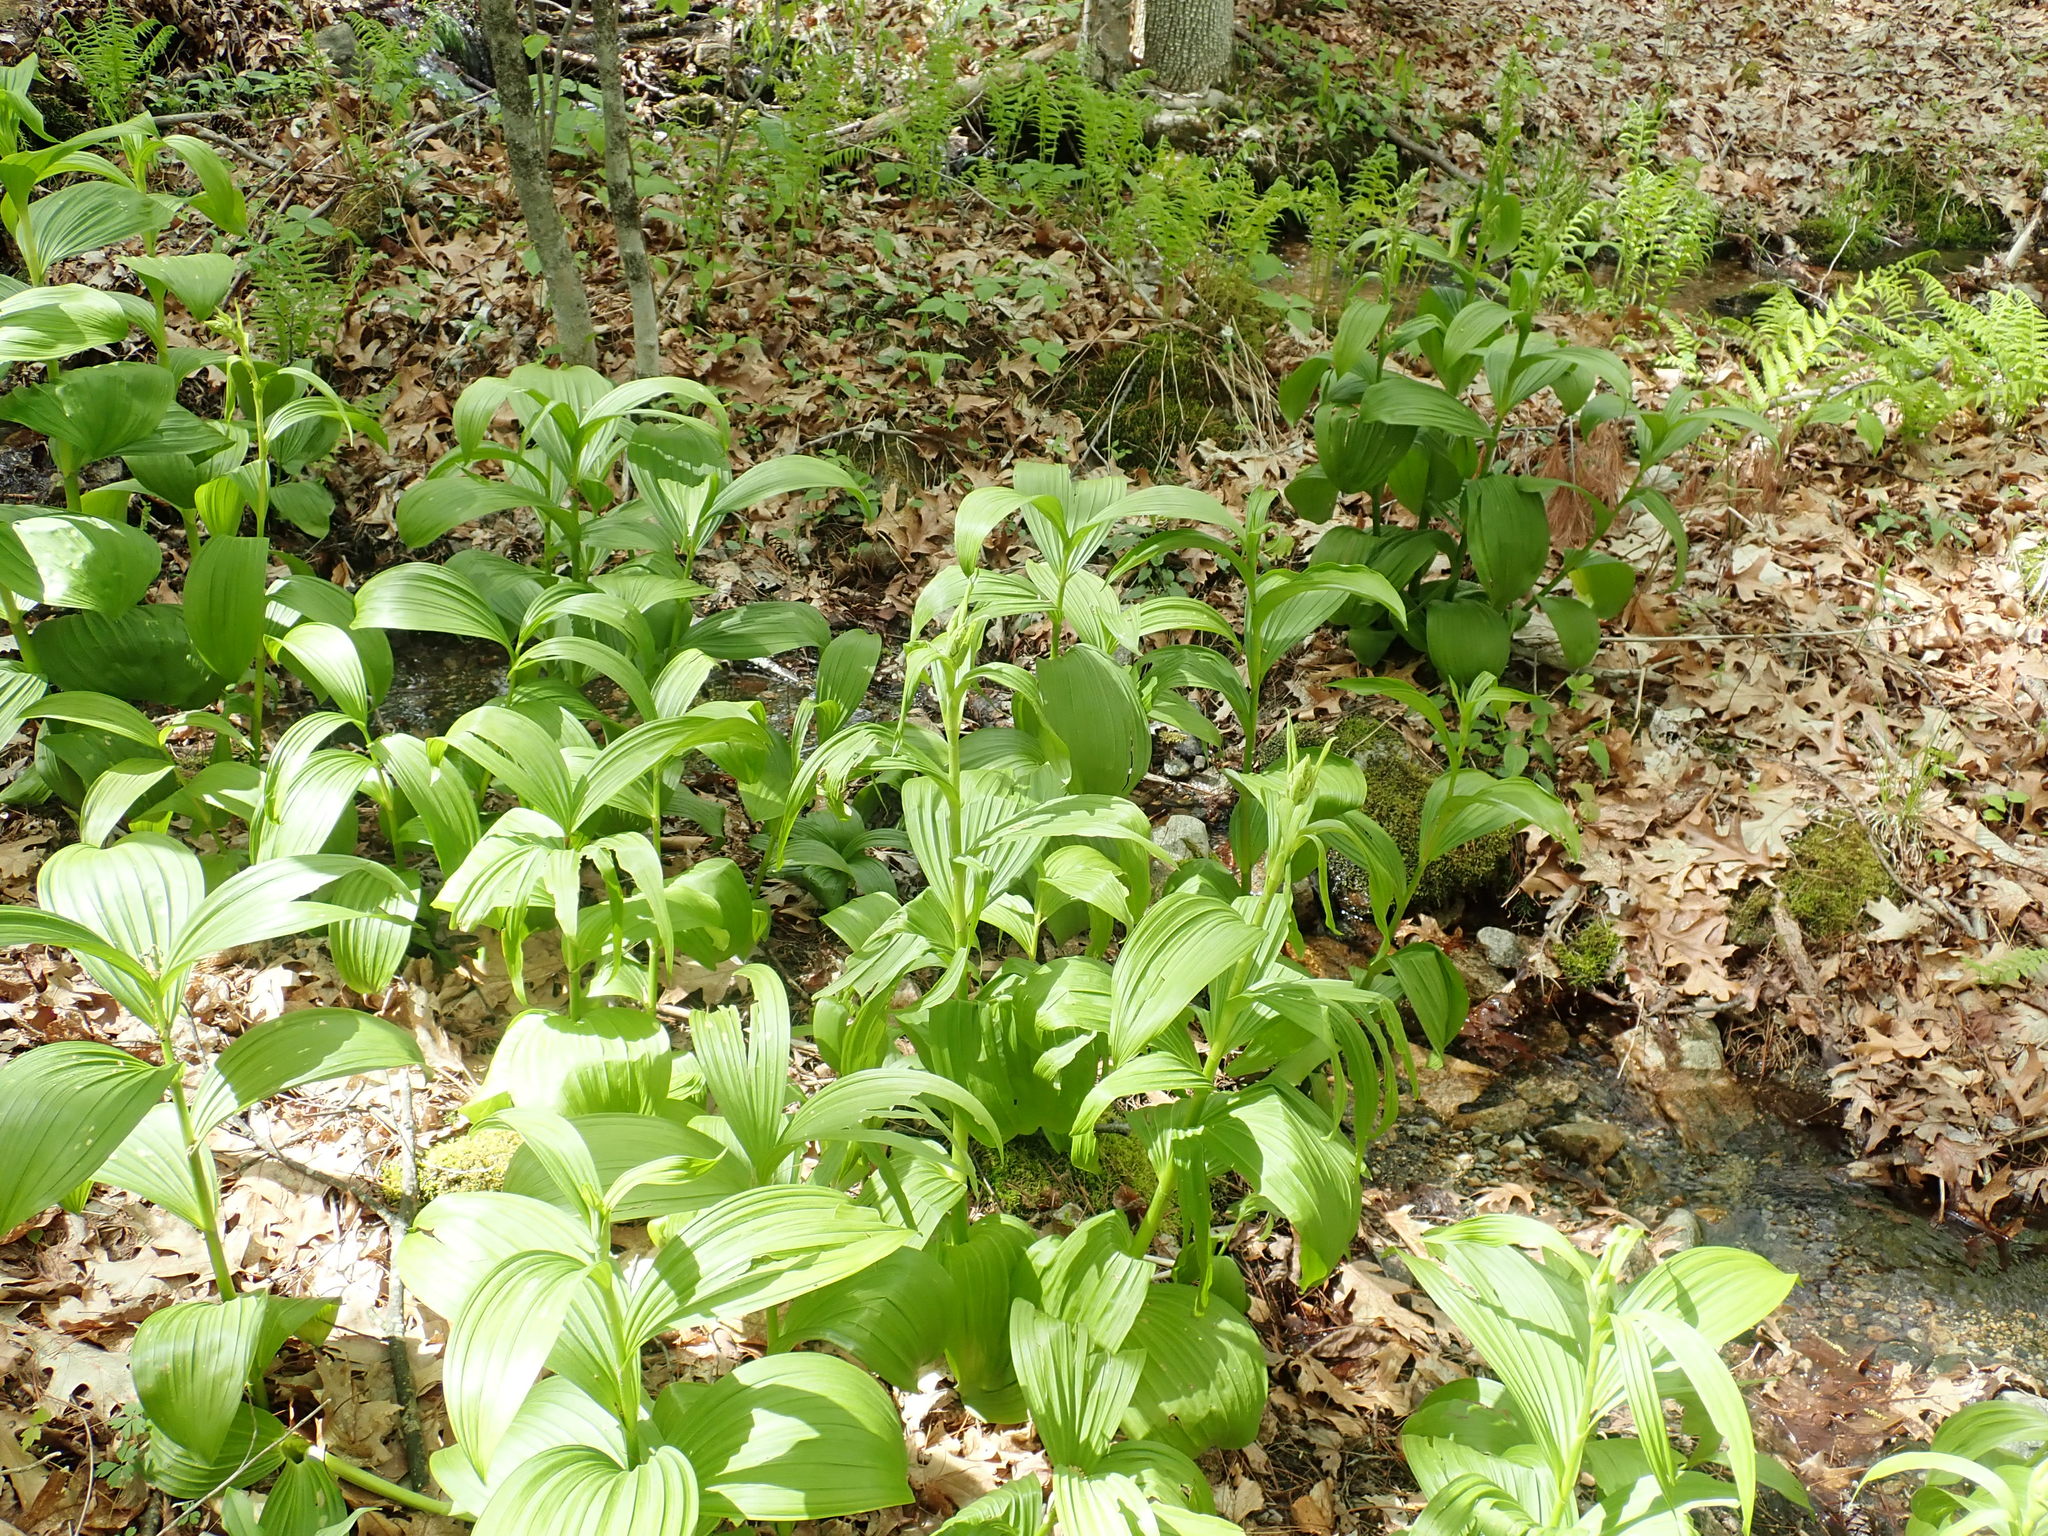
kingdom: Plantae
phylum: Tracheophyta
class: Liliopsida
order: Liliales
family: Melanthiaceae
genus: Veratrum
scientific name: Veratrum viride
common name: American false hellebore
